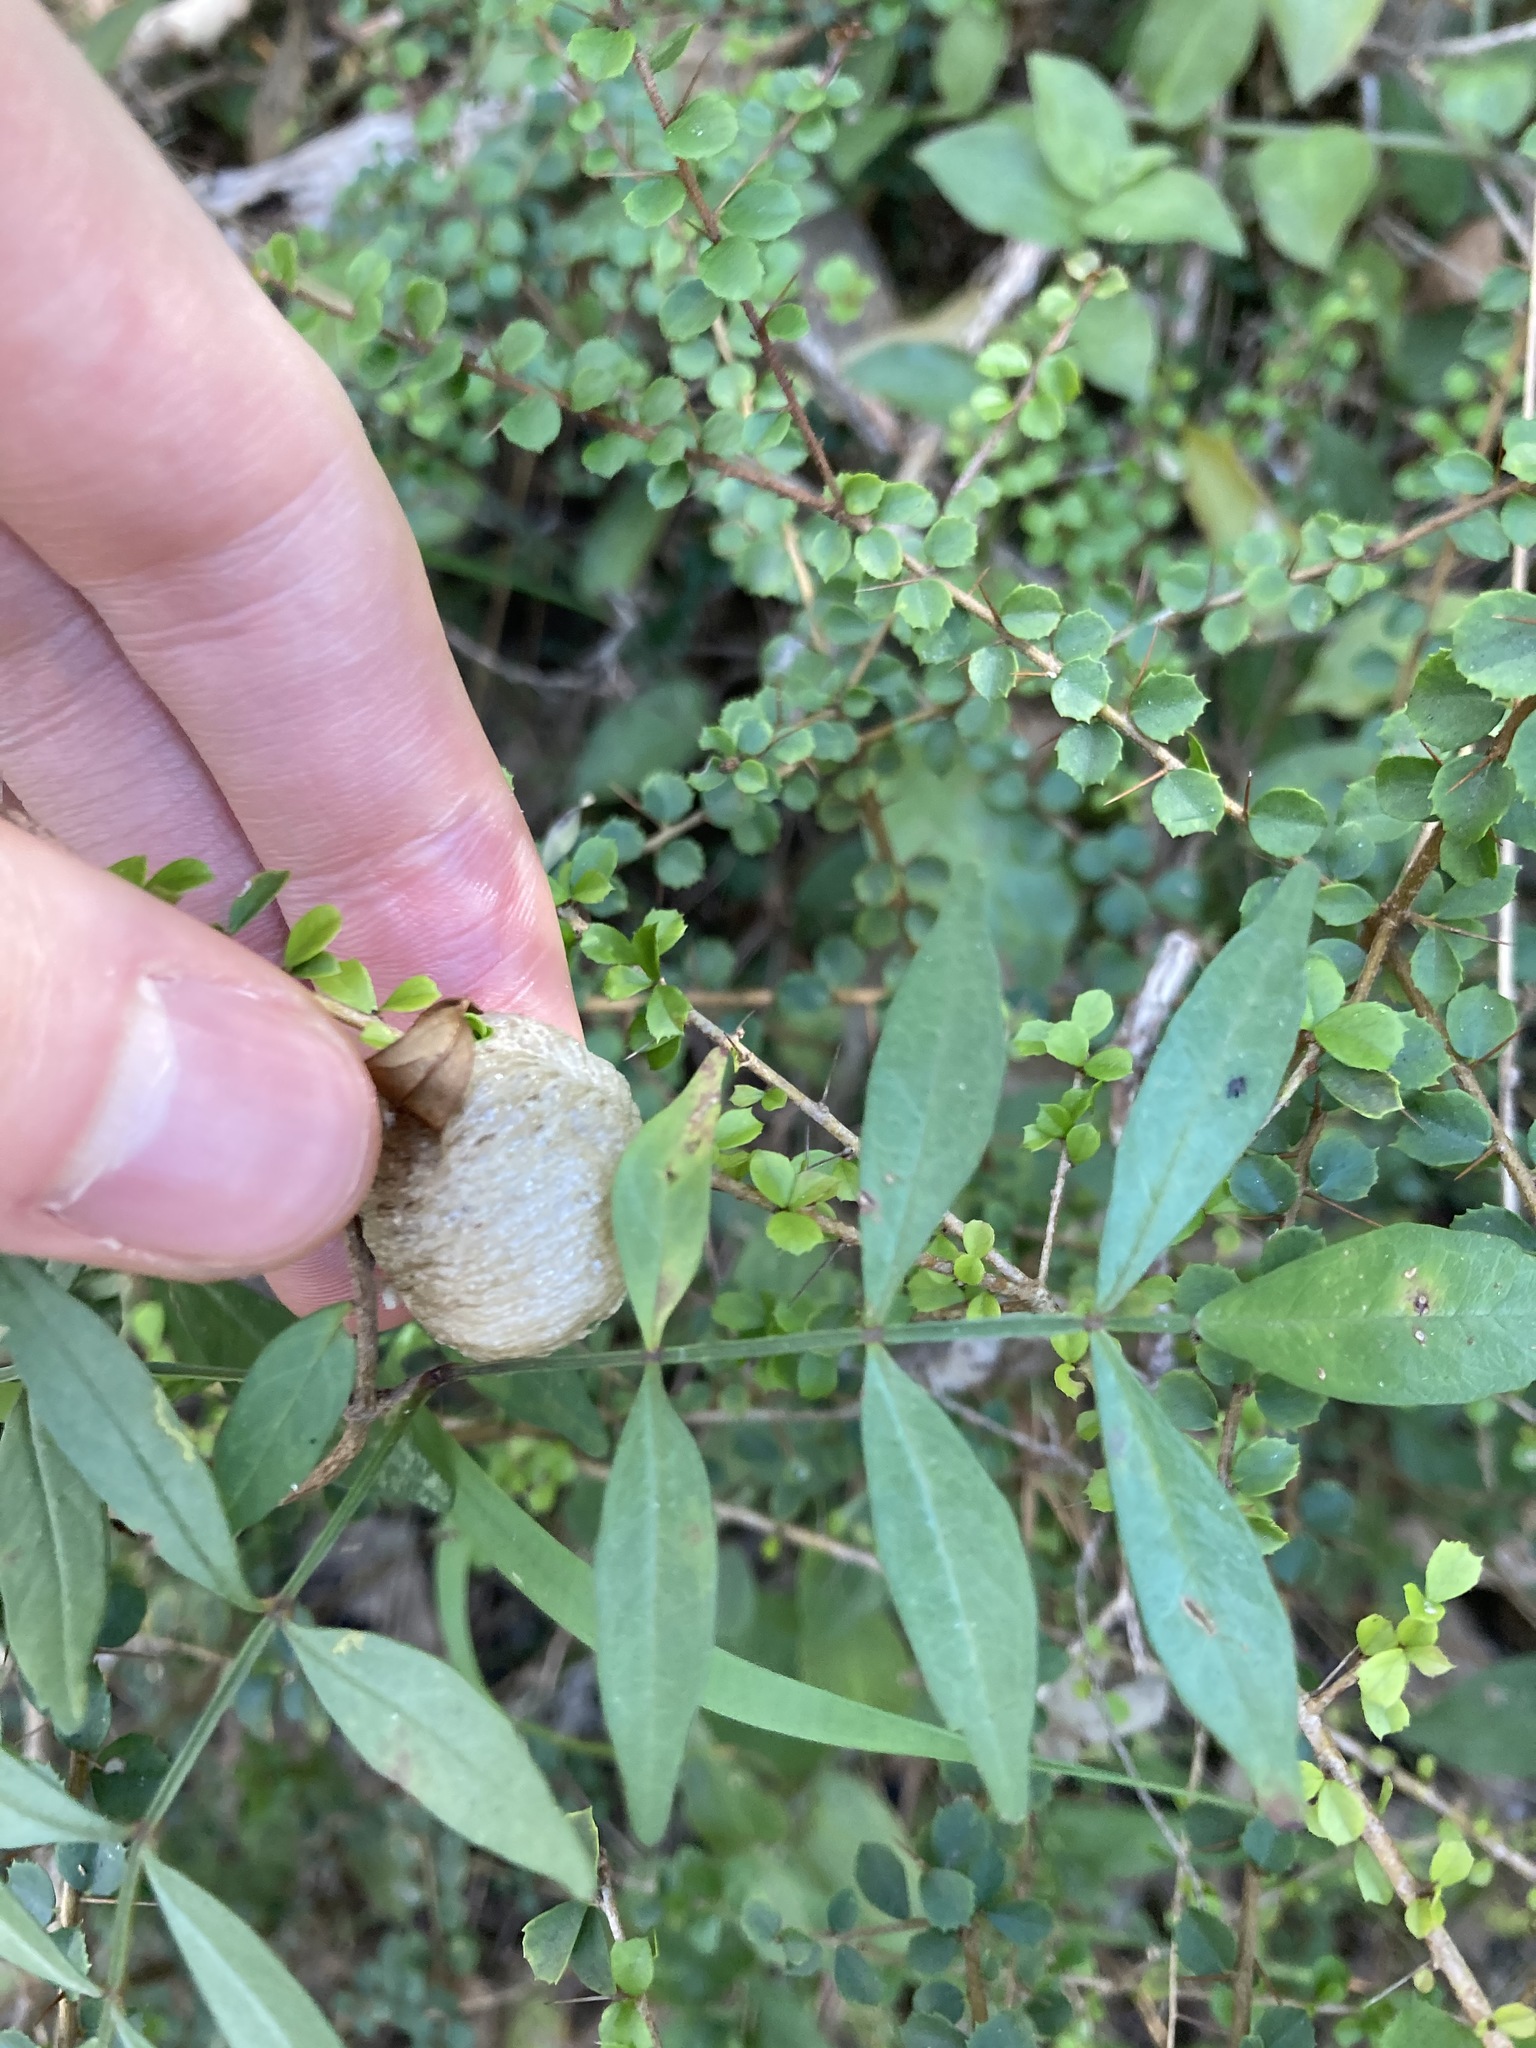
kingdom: Animalia
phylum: Arthropoda
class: Insecta
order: Mantodea
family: Mantidae
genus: Archimantis
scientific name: Archimantis latistyla
